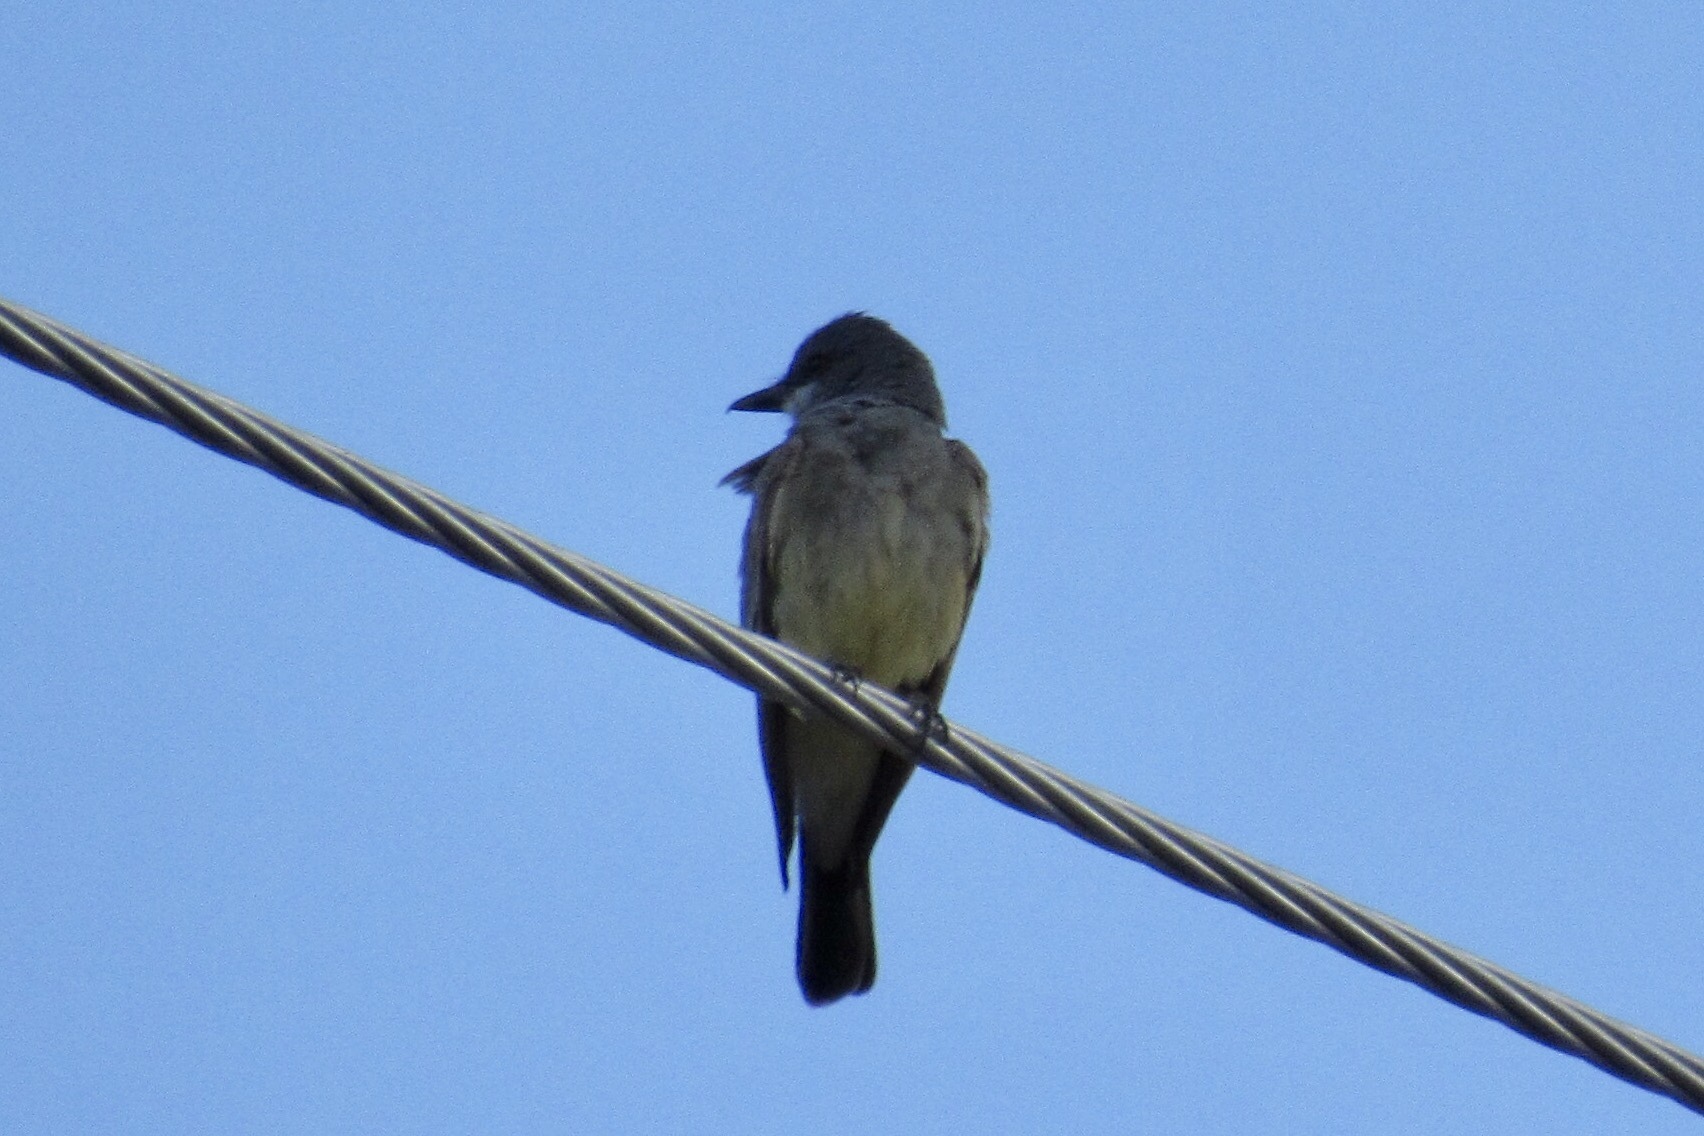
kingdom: Animalia
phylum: Chordata
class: Aves
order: Passeriformes
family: Tyrannidae
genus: Tyrannus
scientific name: Tyrannus vociferans
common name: Cassin's kingbird
